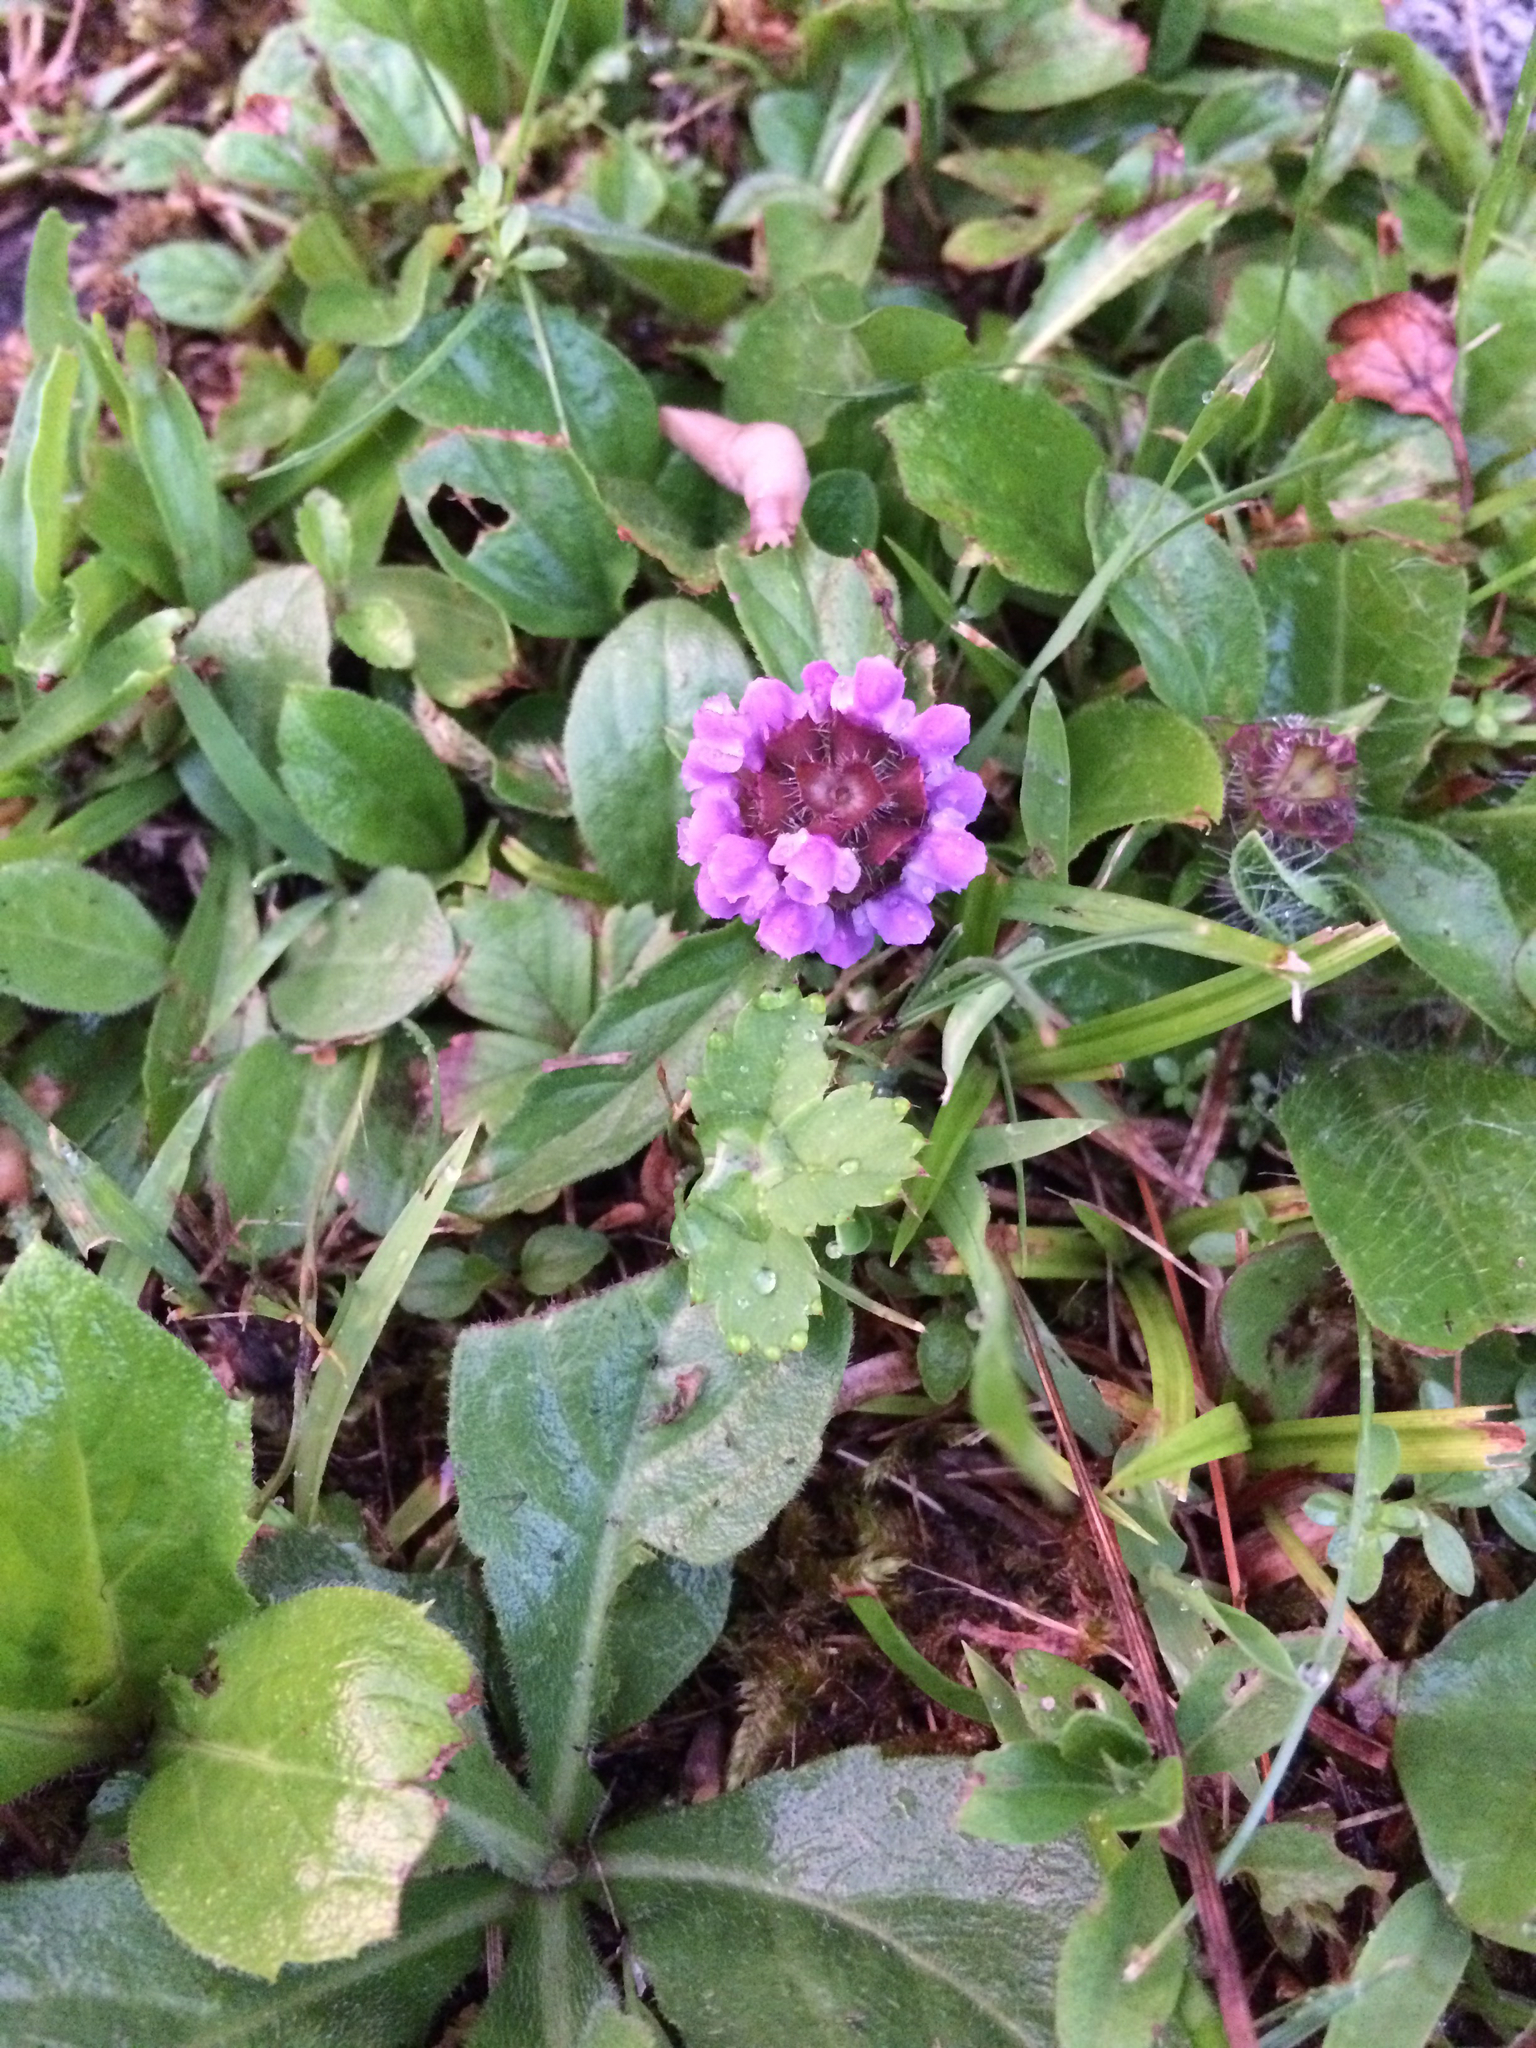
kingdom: Plantae
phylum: Tracheophyta
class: Magnoliopsida
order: Lamiales
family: Lamiaceae
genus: Prunella
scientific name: Prunella vulgaris
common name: Heal-all
